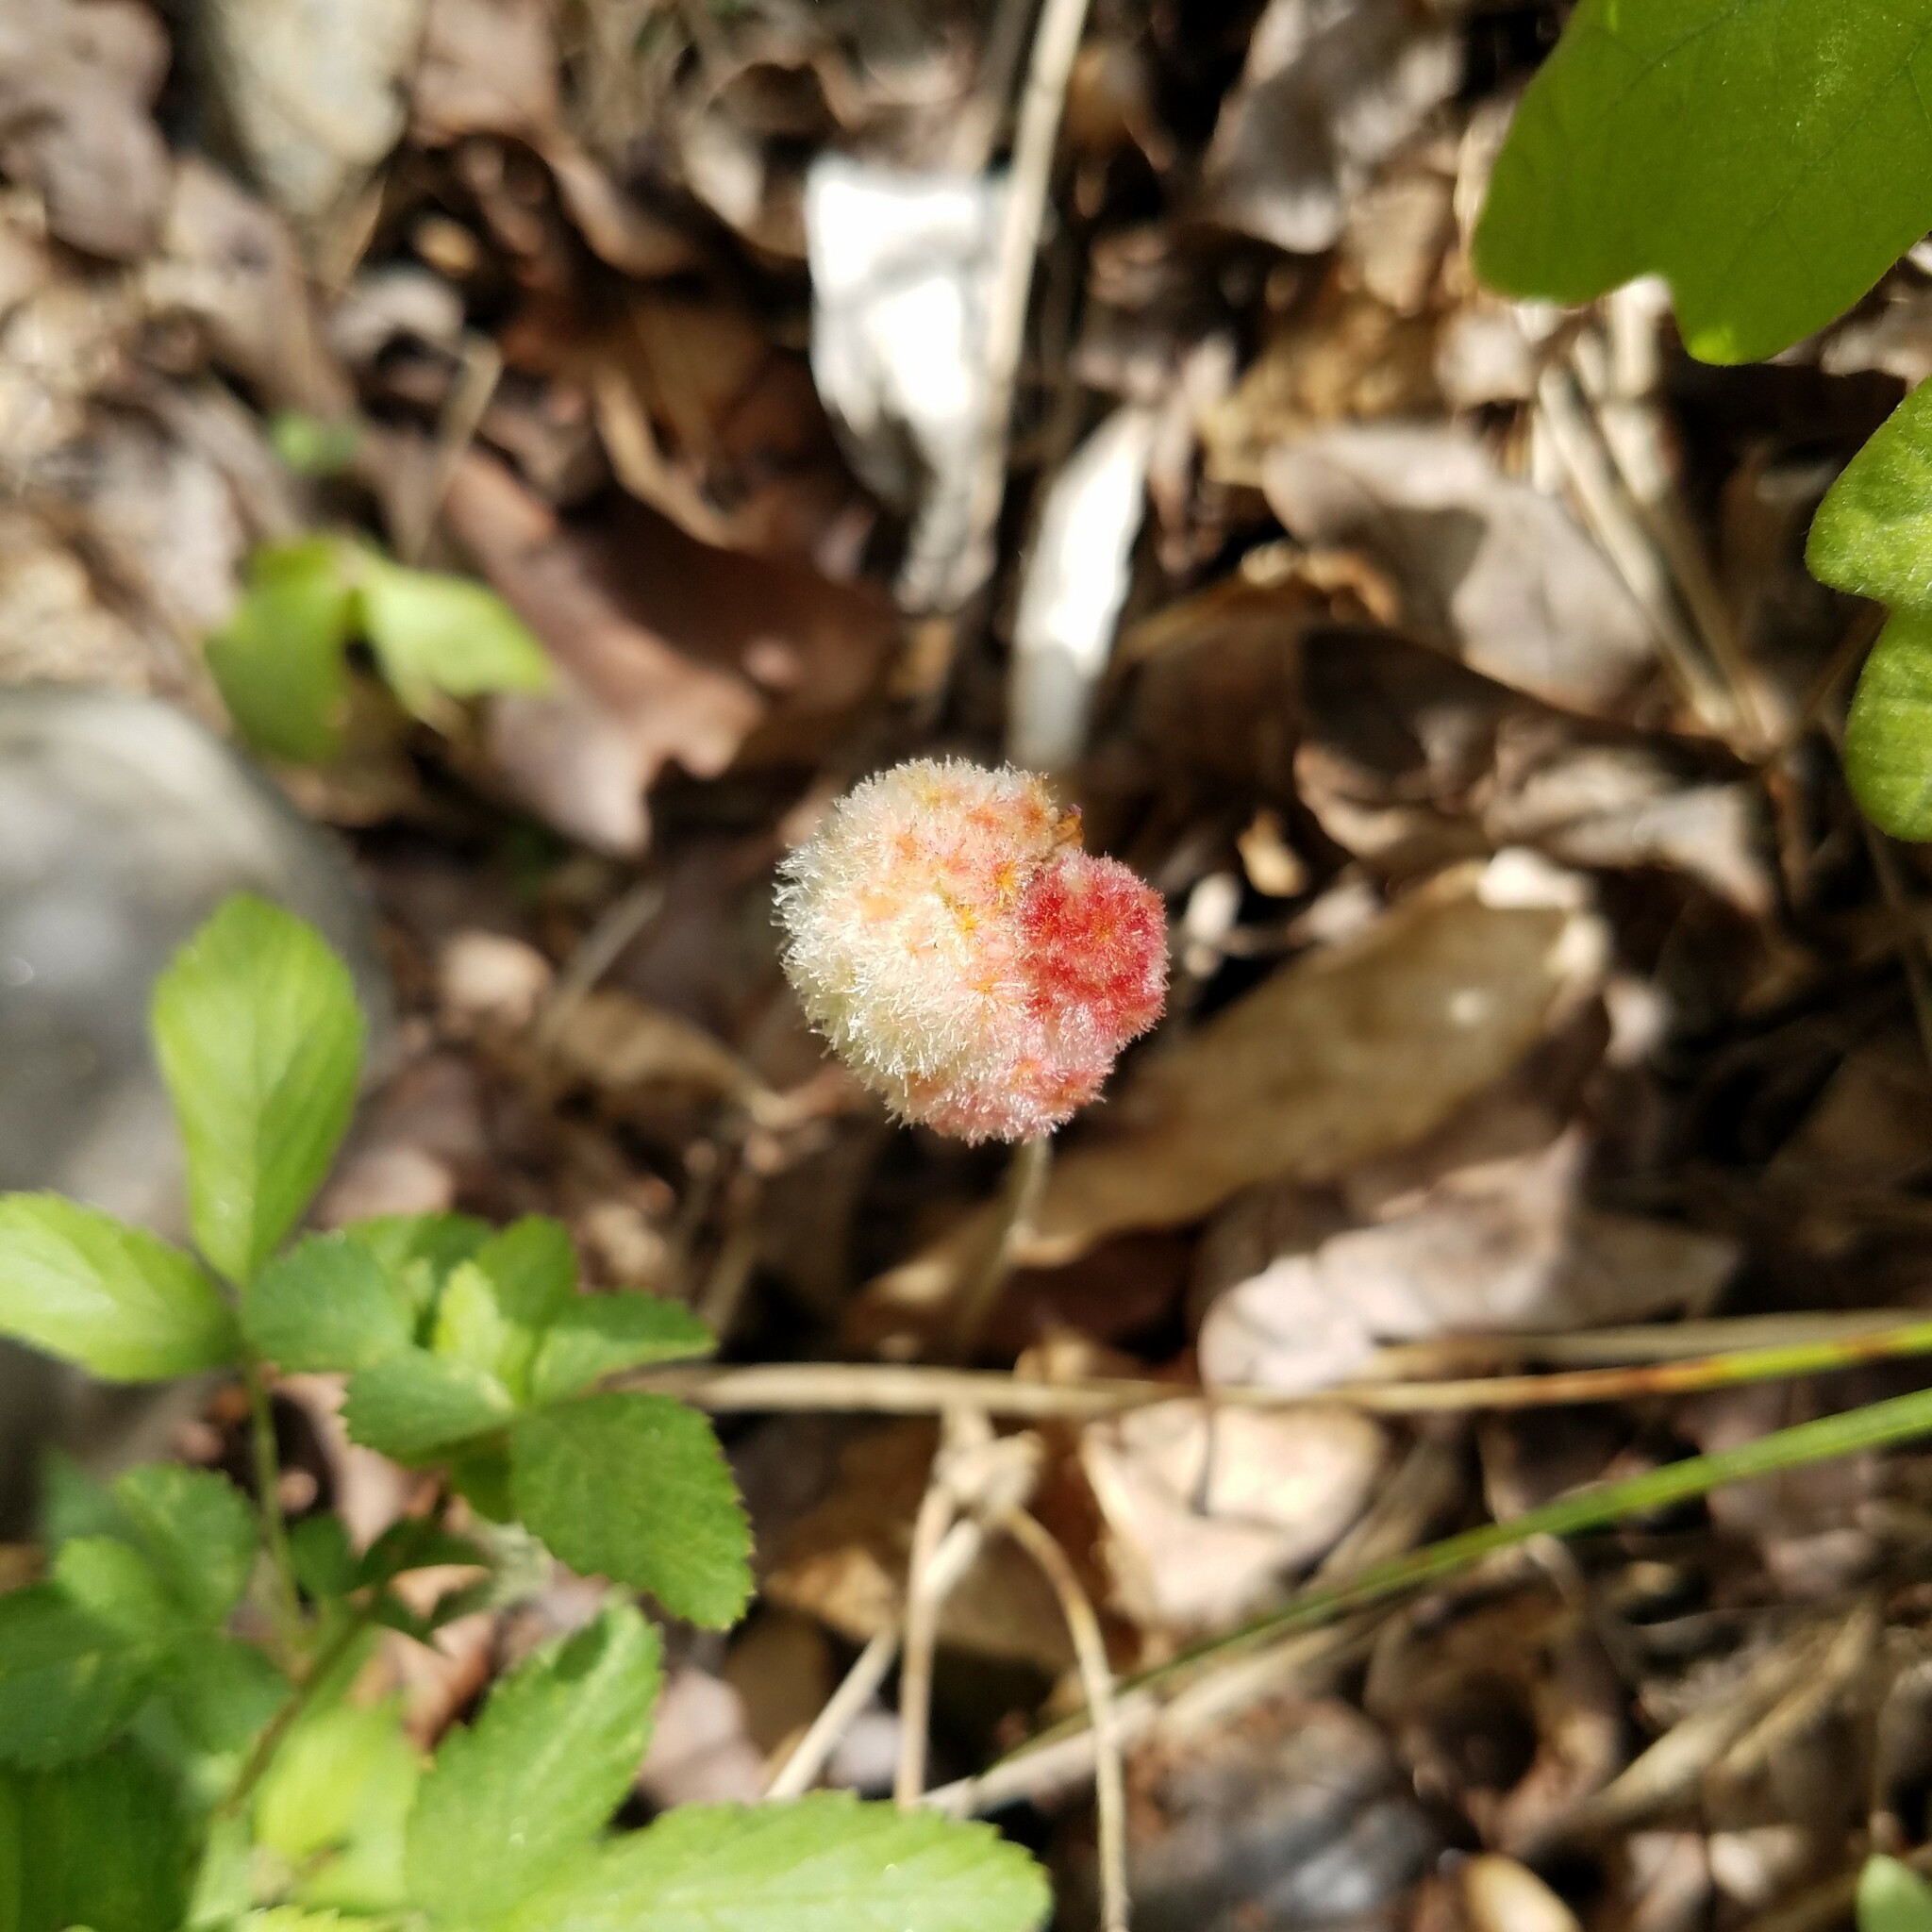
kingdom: Animalia
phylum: Arthropoda
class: Insecta
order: Hymenoptera
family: Cynipidae
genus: Callirhytis
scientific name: Callirhytis
